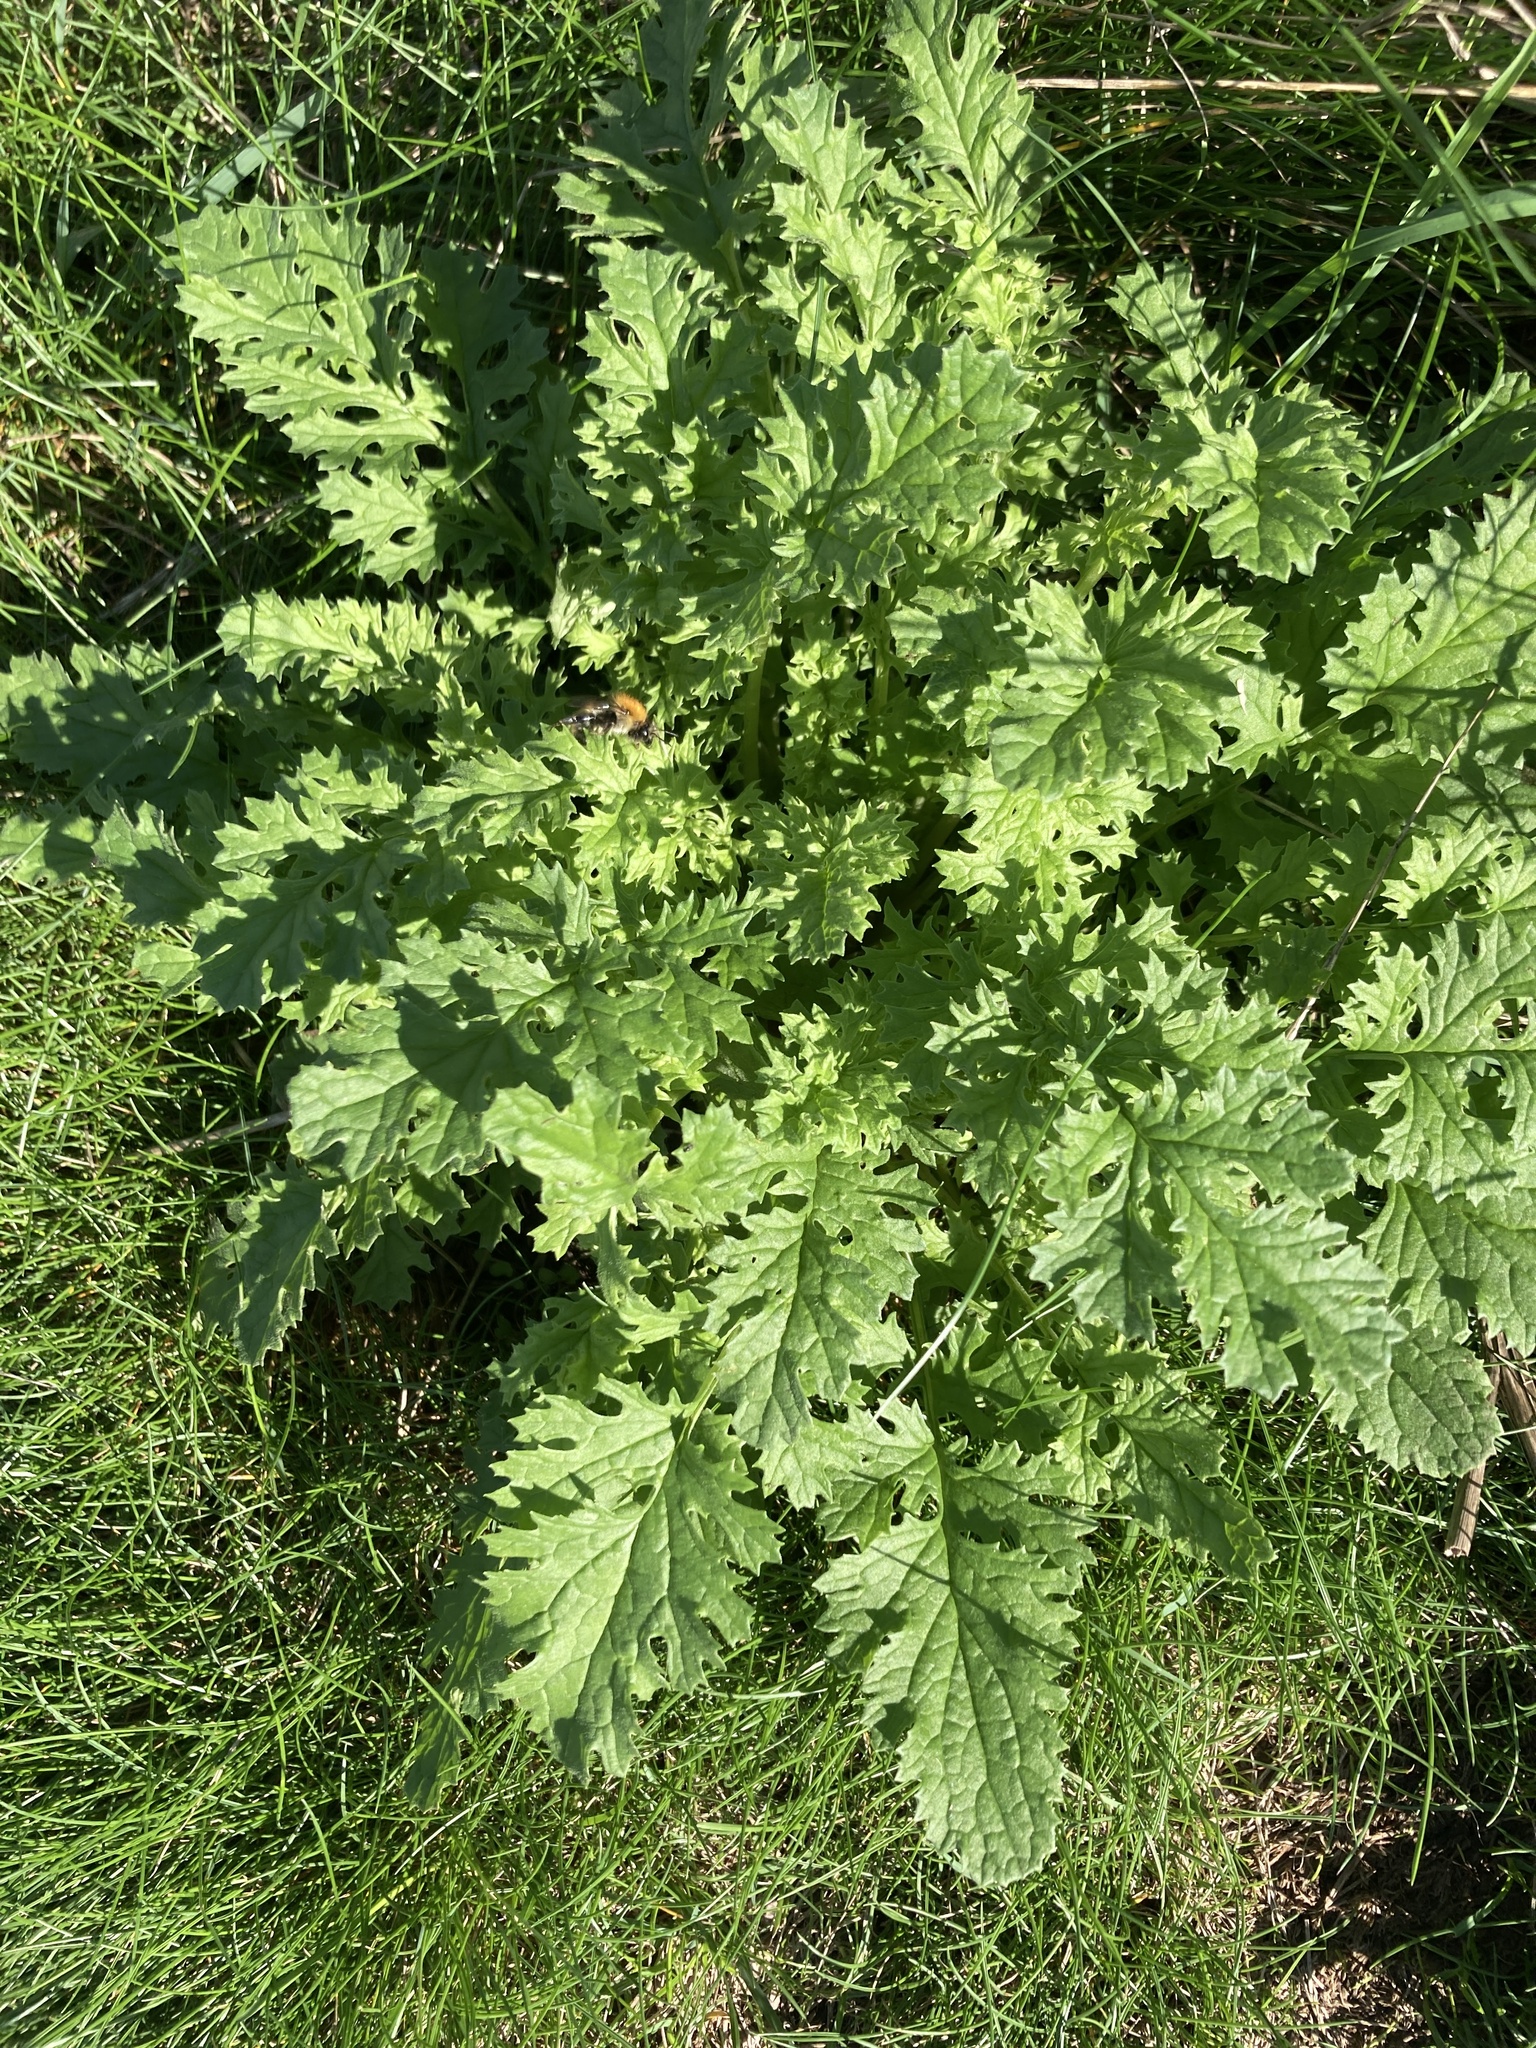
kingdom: Plantae
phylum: Tracheophyta
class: Magnoliopsida
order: Asterales
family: Asteraceae
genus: Jacobaea
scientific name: Jacobaea vulgaris
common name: Stinking willie
